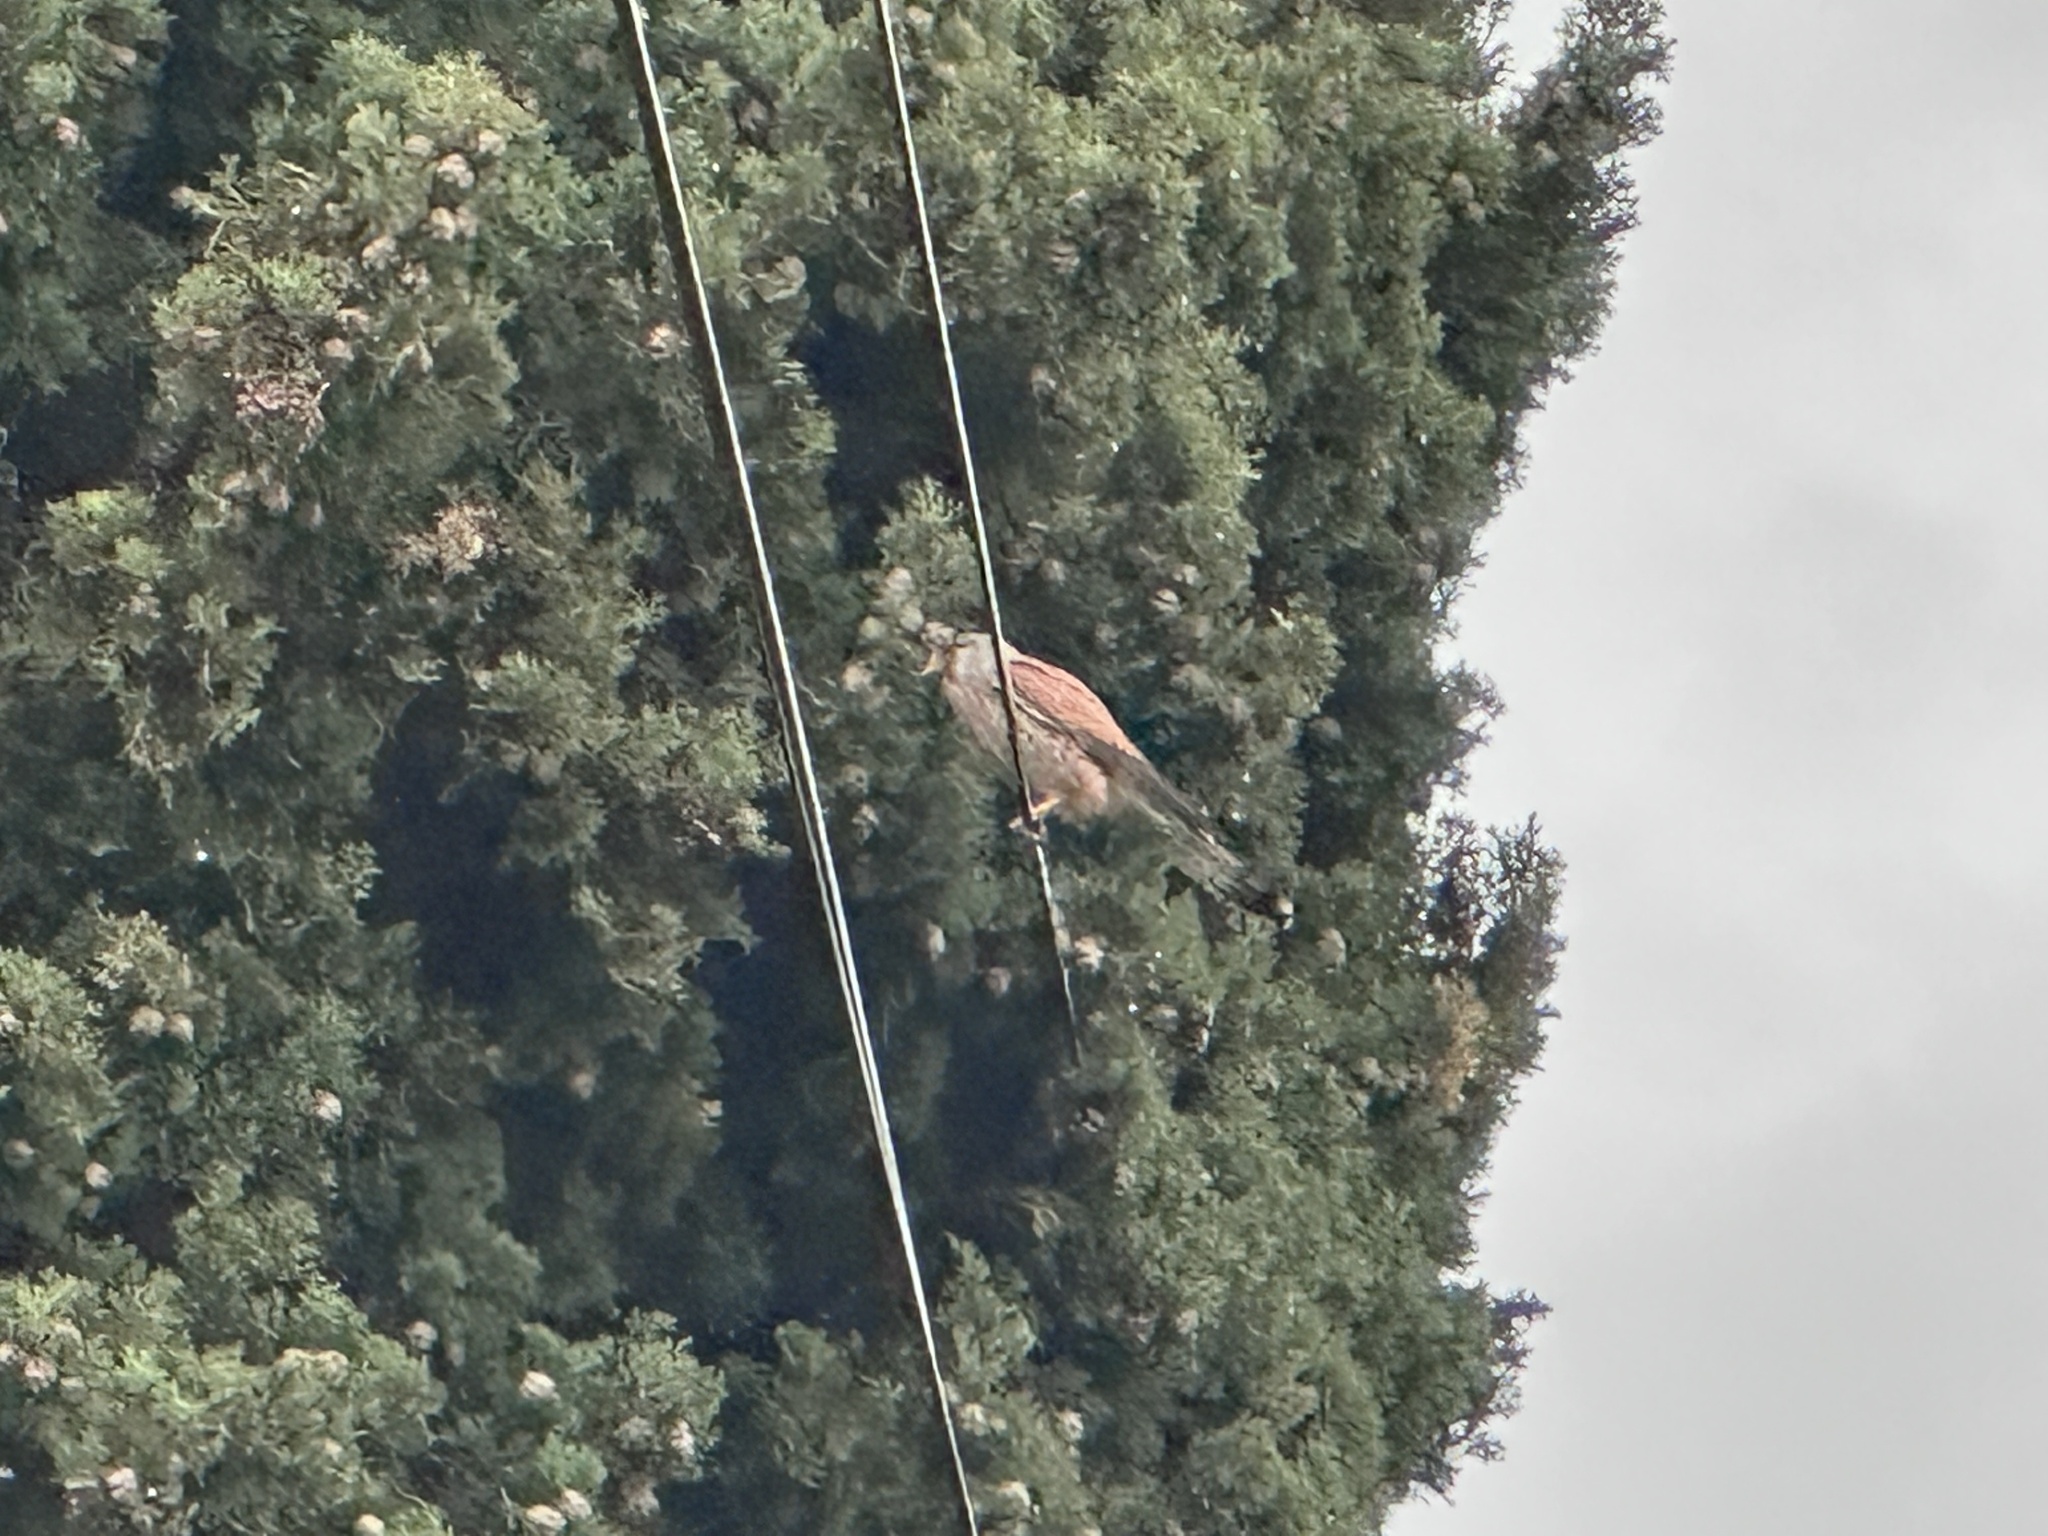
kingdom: Animalia
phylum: Chordata
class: Aves
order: Falconiformes
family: Falconidae
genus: Falco
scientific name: Falco tinnunculus
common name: Common kestrel
